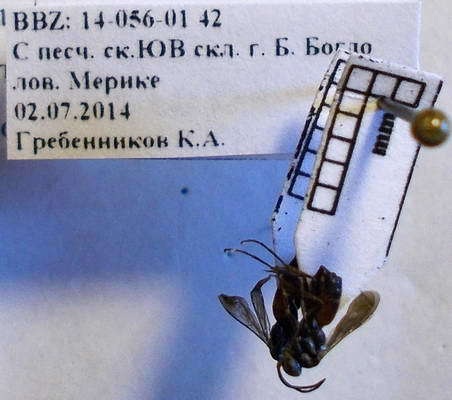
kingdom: Animalia
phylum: Arthropoda
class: Insecta
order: Hymenoptera
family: Pompilidae
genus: Tachyagetes
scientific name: Tachyagetes filicornis
